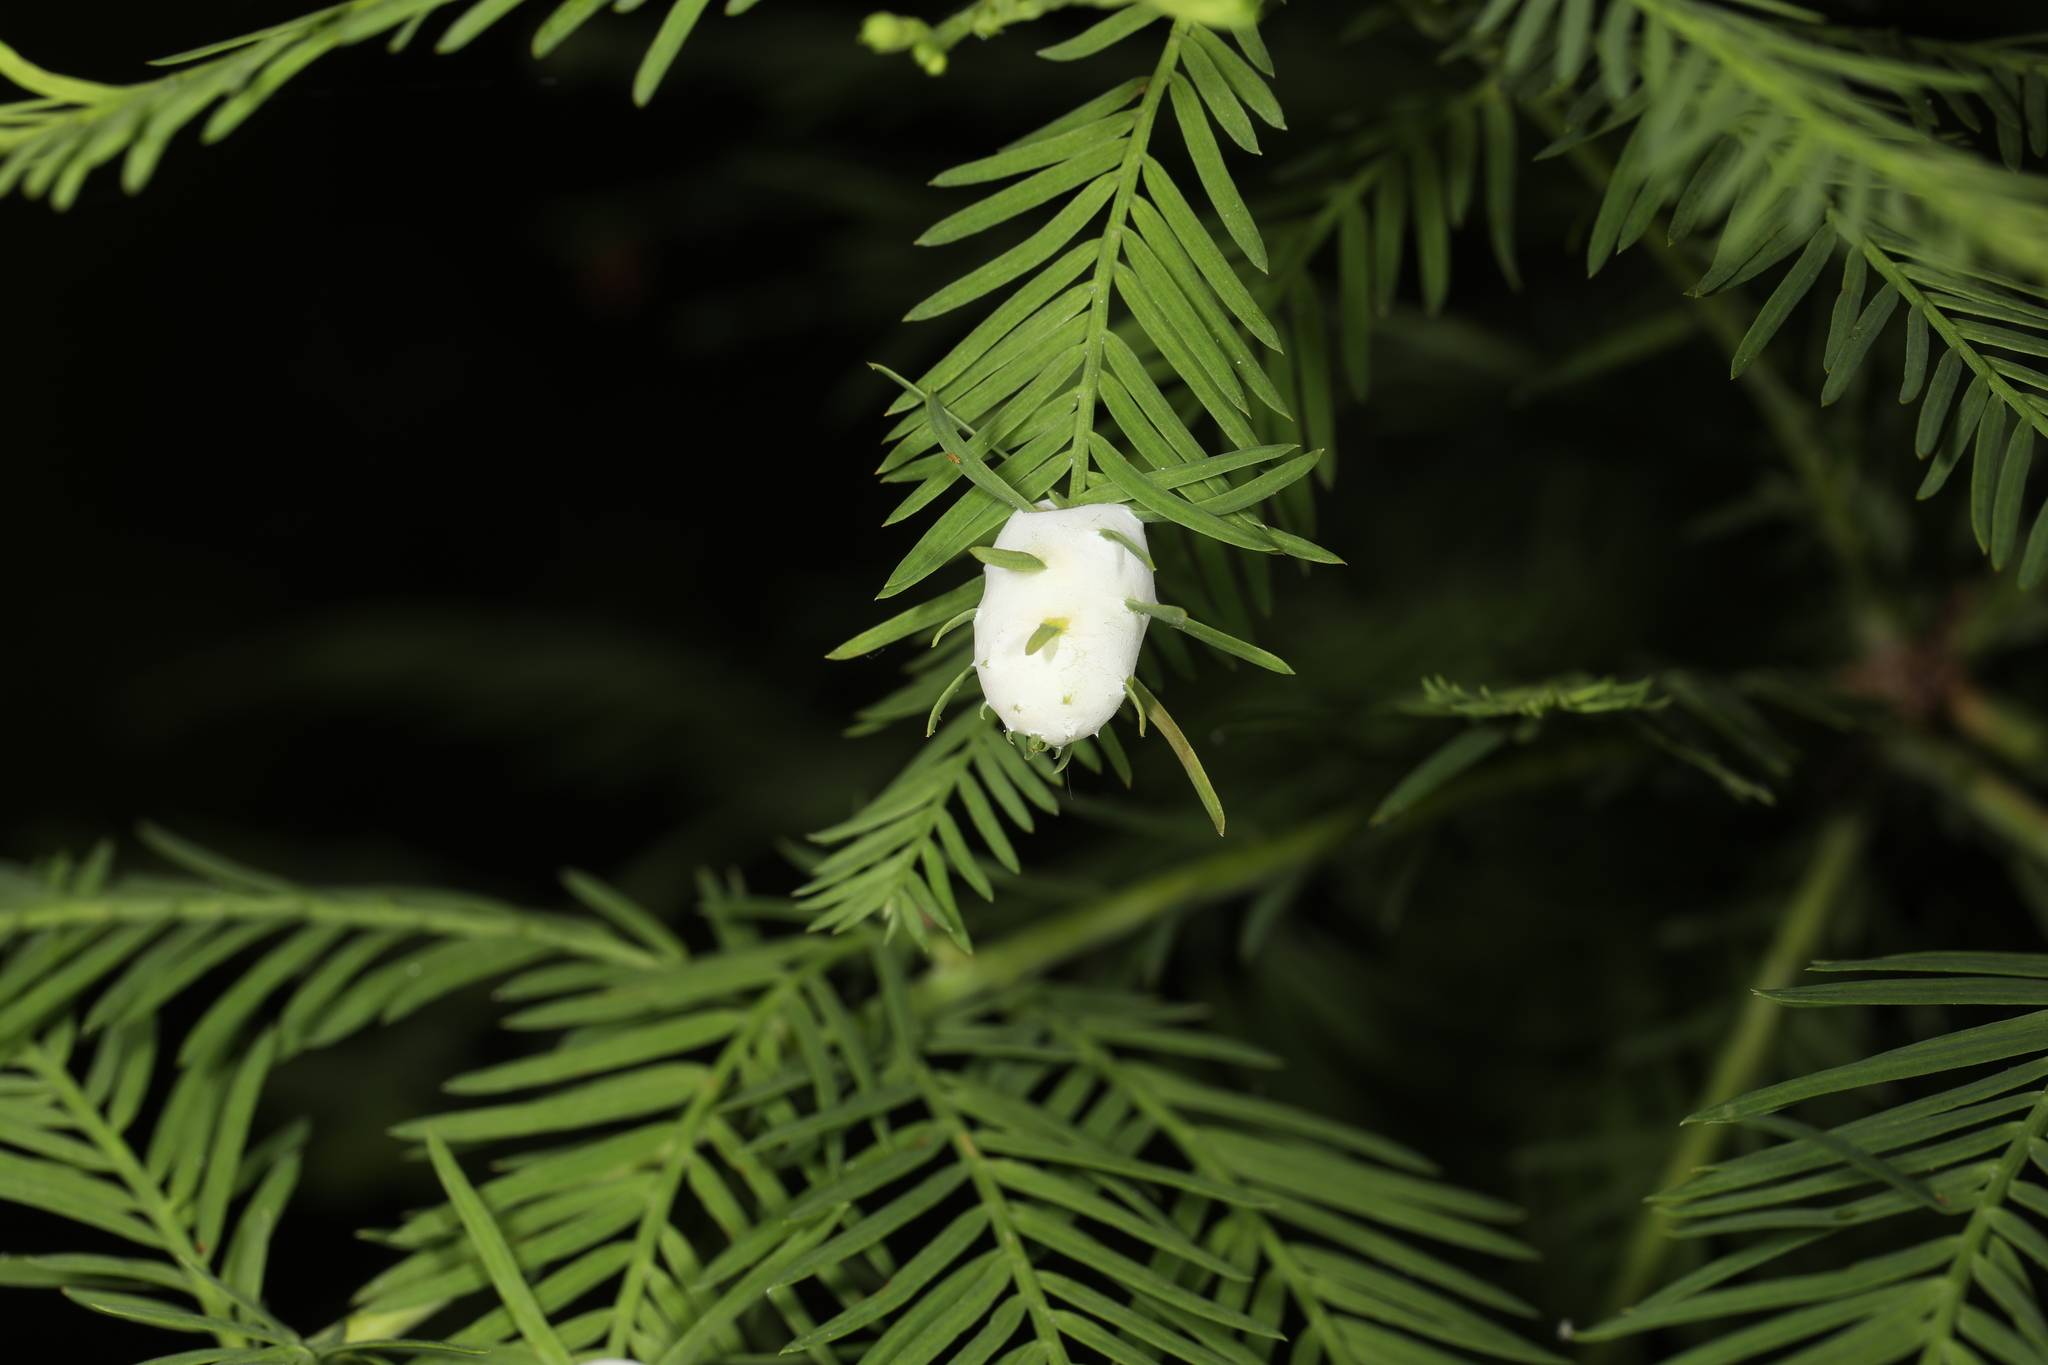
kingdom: Animalia
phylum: Arthropoda
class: Insecta
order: Diptera
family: Cecidomyiidae
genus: Taxodiomyia
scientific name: Taxodiomyia cupressiananassa
